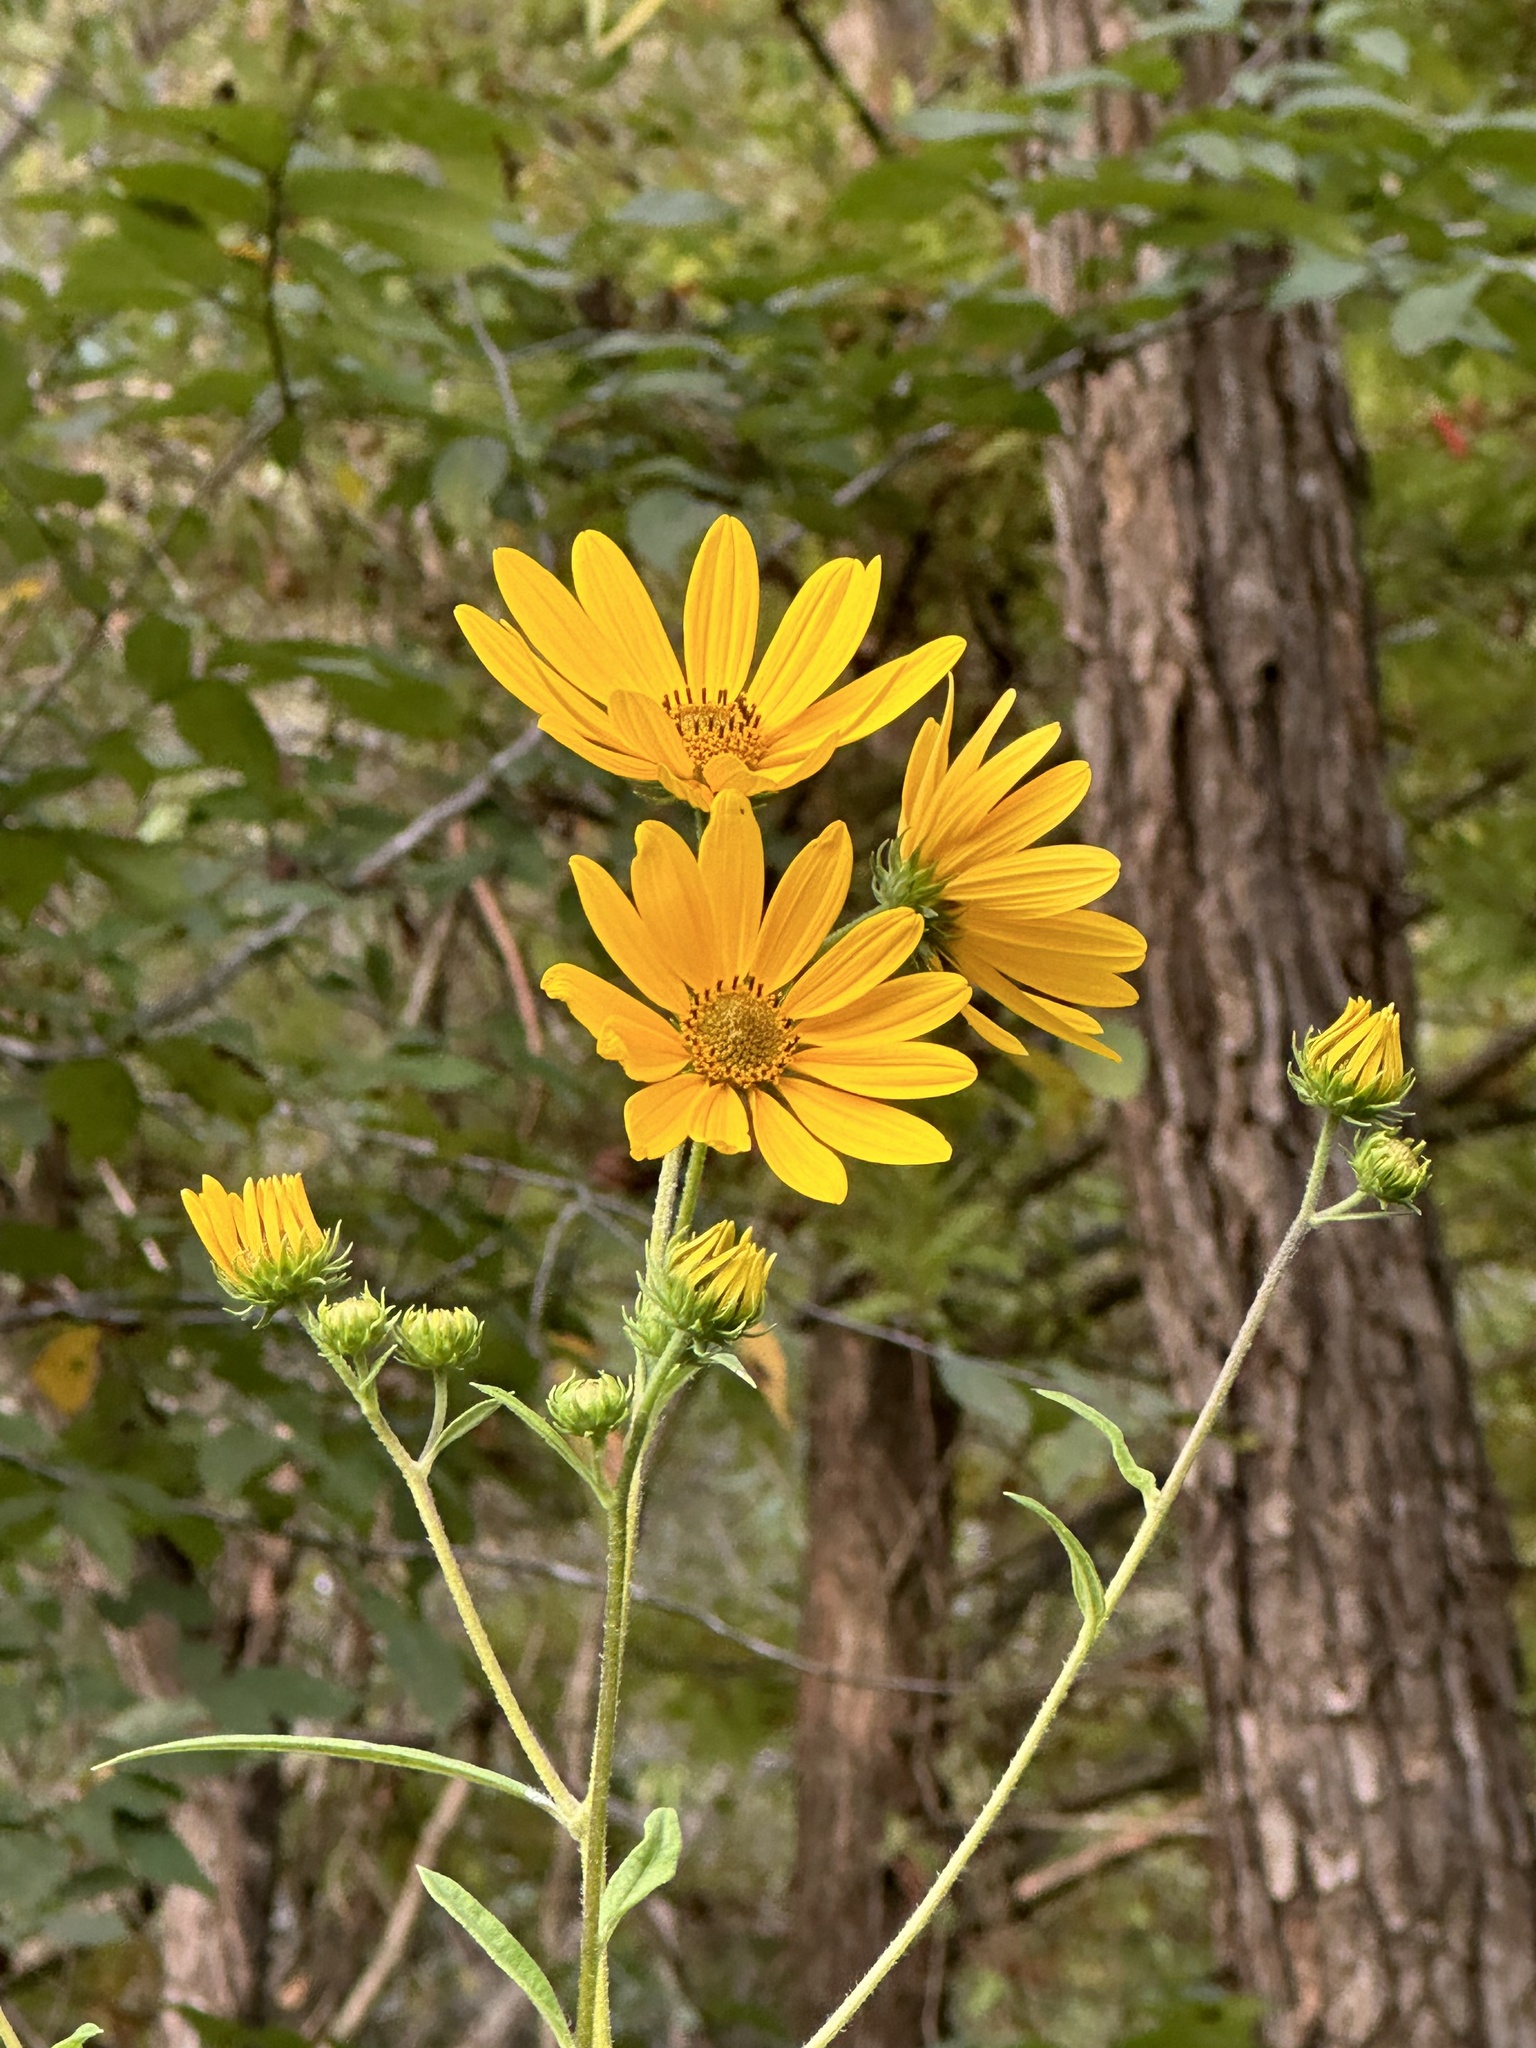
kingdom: Plantae
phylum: Tracheophyta
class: Magnoliopsida
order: Asterales
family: Asteraceae
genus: Helianthus
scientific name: Helianthus angustifolius
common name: Swamp sunflower
